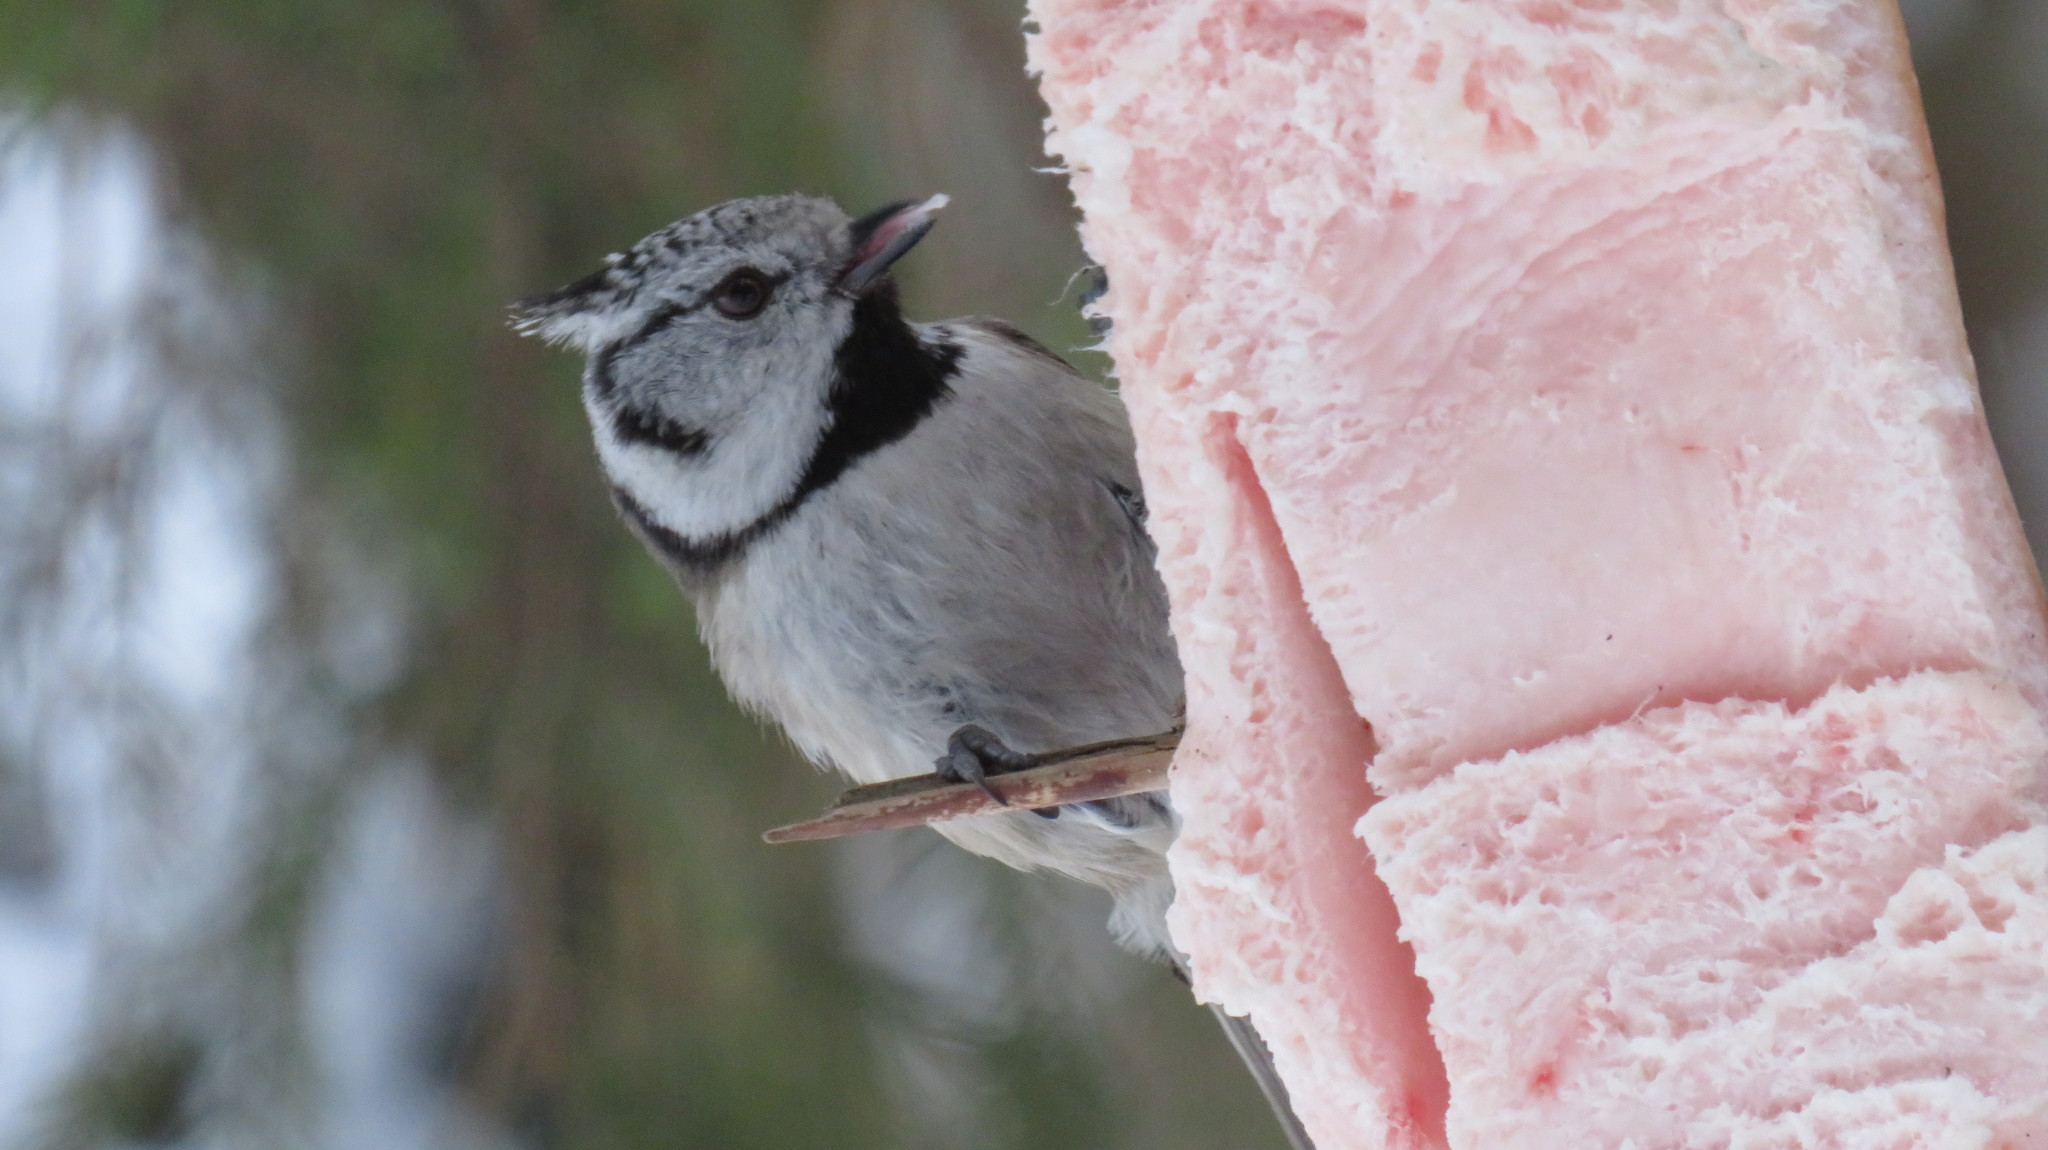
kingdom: Animalia
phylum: Chordata
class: Aves
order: Passeriformes
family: Paridae
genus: Lophophanes
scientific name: Lophophanes cristatus
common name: European crested tit
